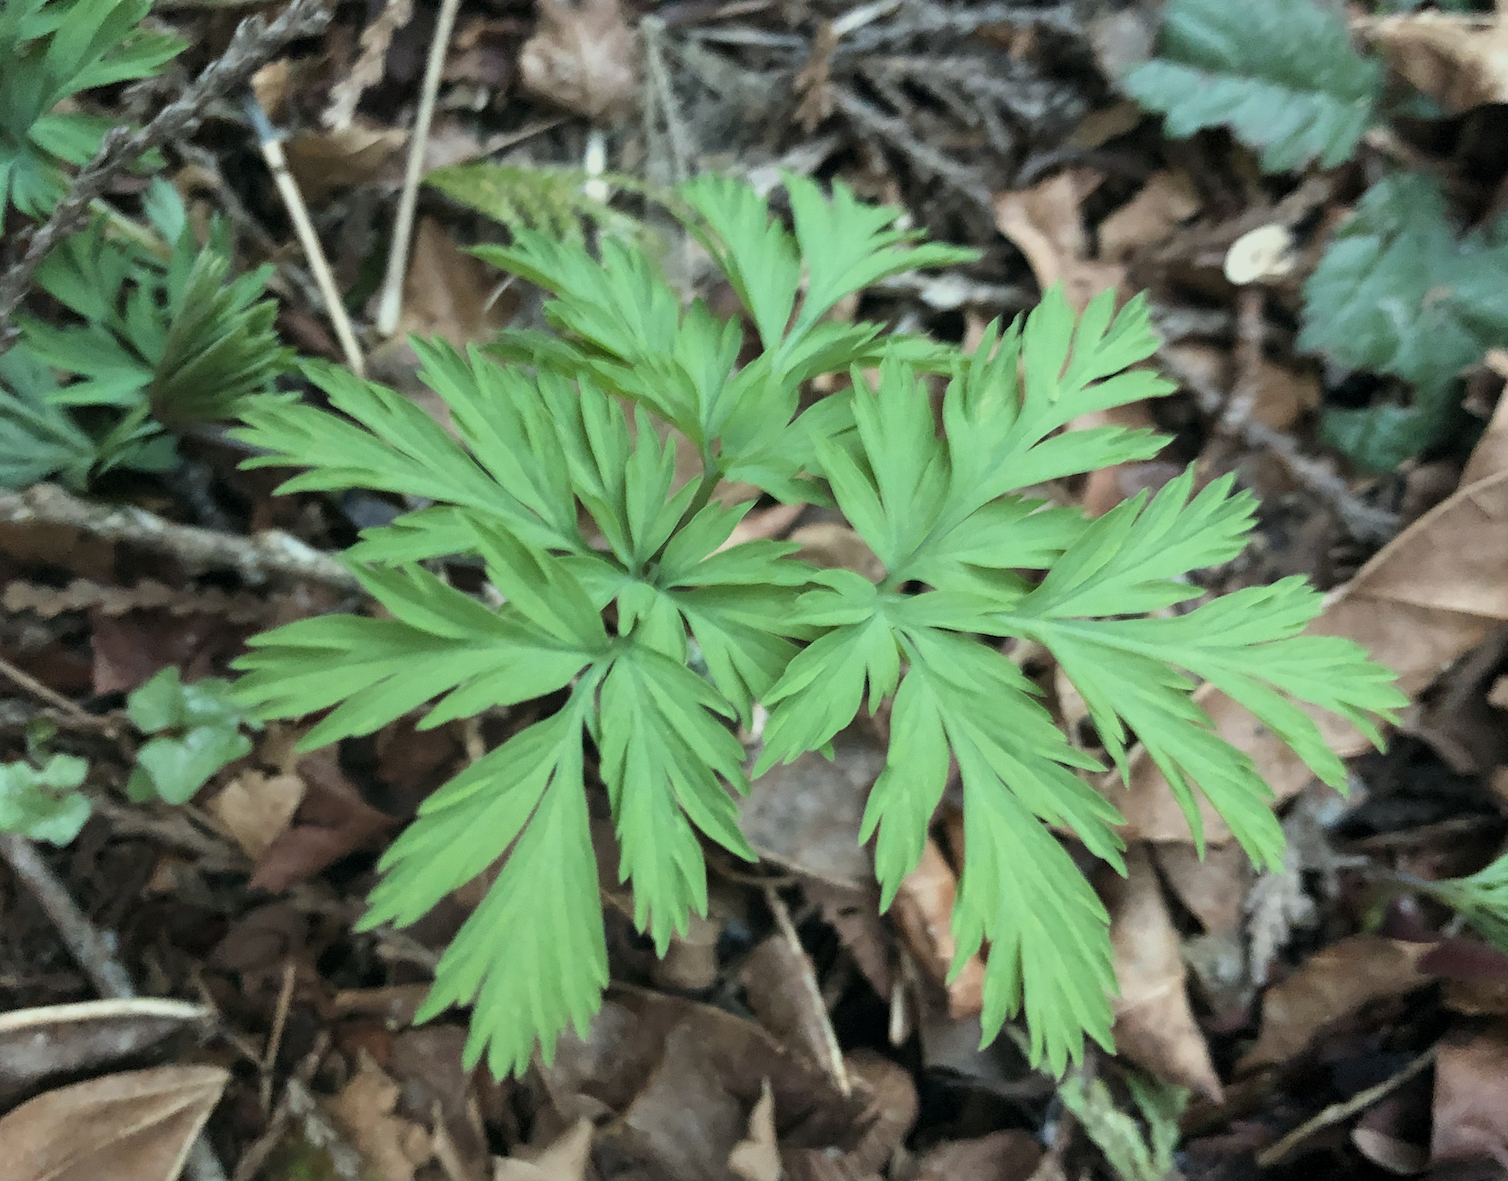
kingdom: Plantae
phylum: Tracheophyta
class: Magnoliopsida
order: Ranunculales
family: Papaveraceae
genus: Dicentra
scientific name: Dicentra formosa
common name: Bleeding-heart
